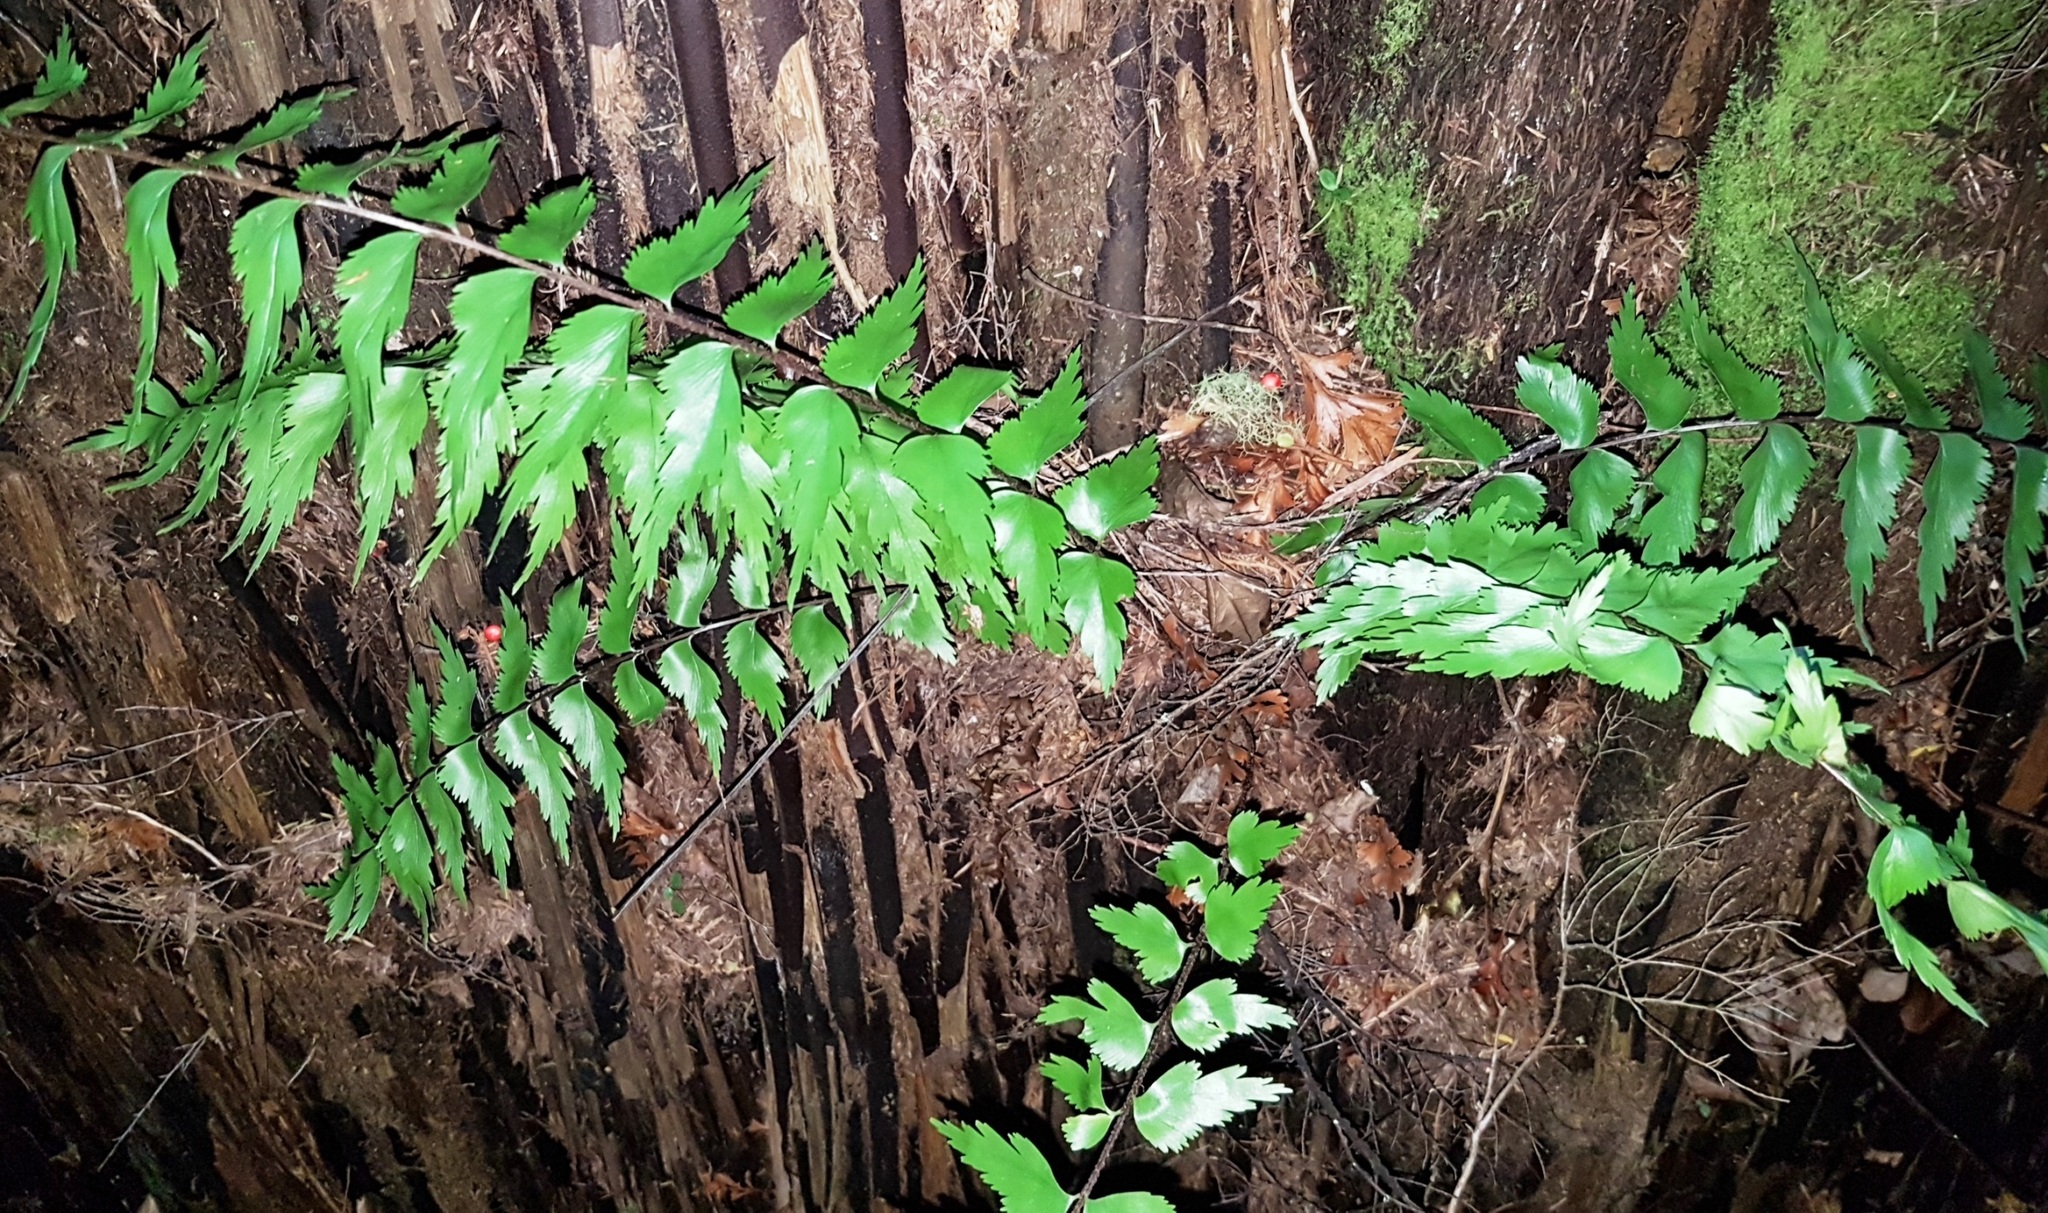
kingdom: Plantae
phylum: Tracheophyta
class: Polypodiopsida
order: Polypodiales
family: Aspleniaceae
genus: Asplenium
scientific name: Asplenium polyodon
